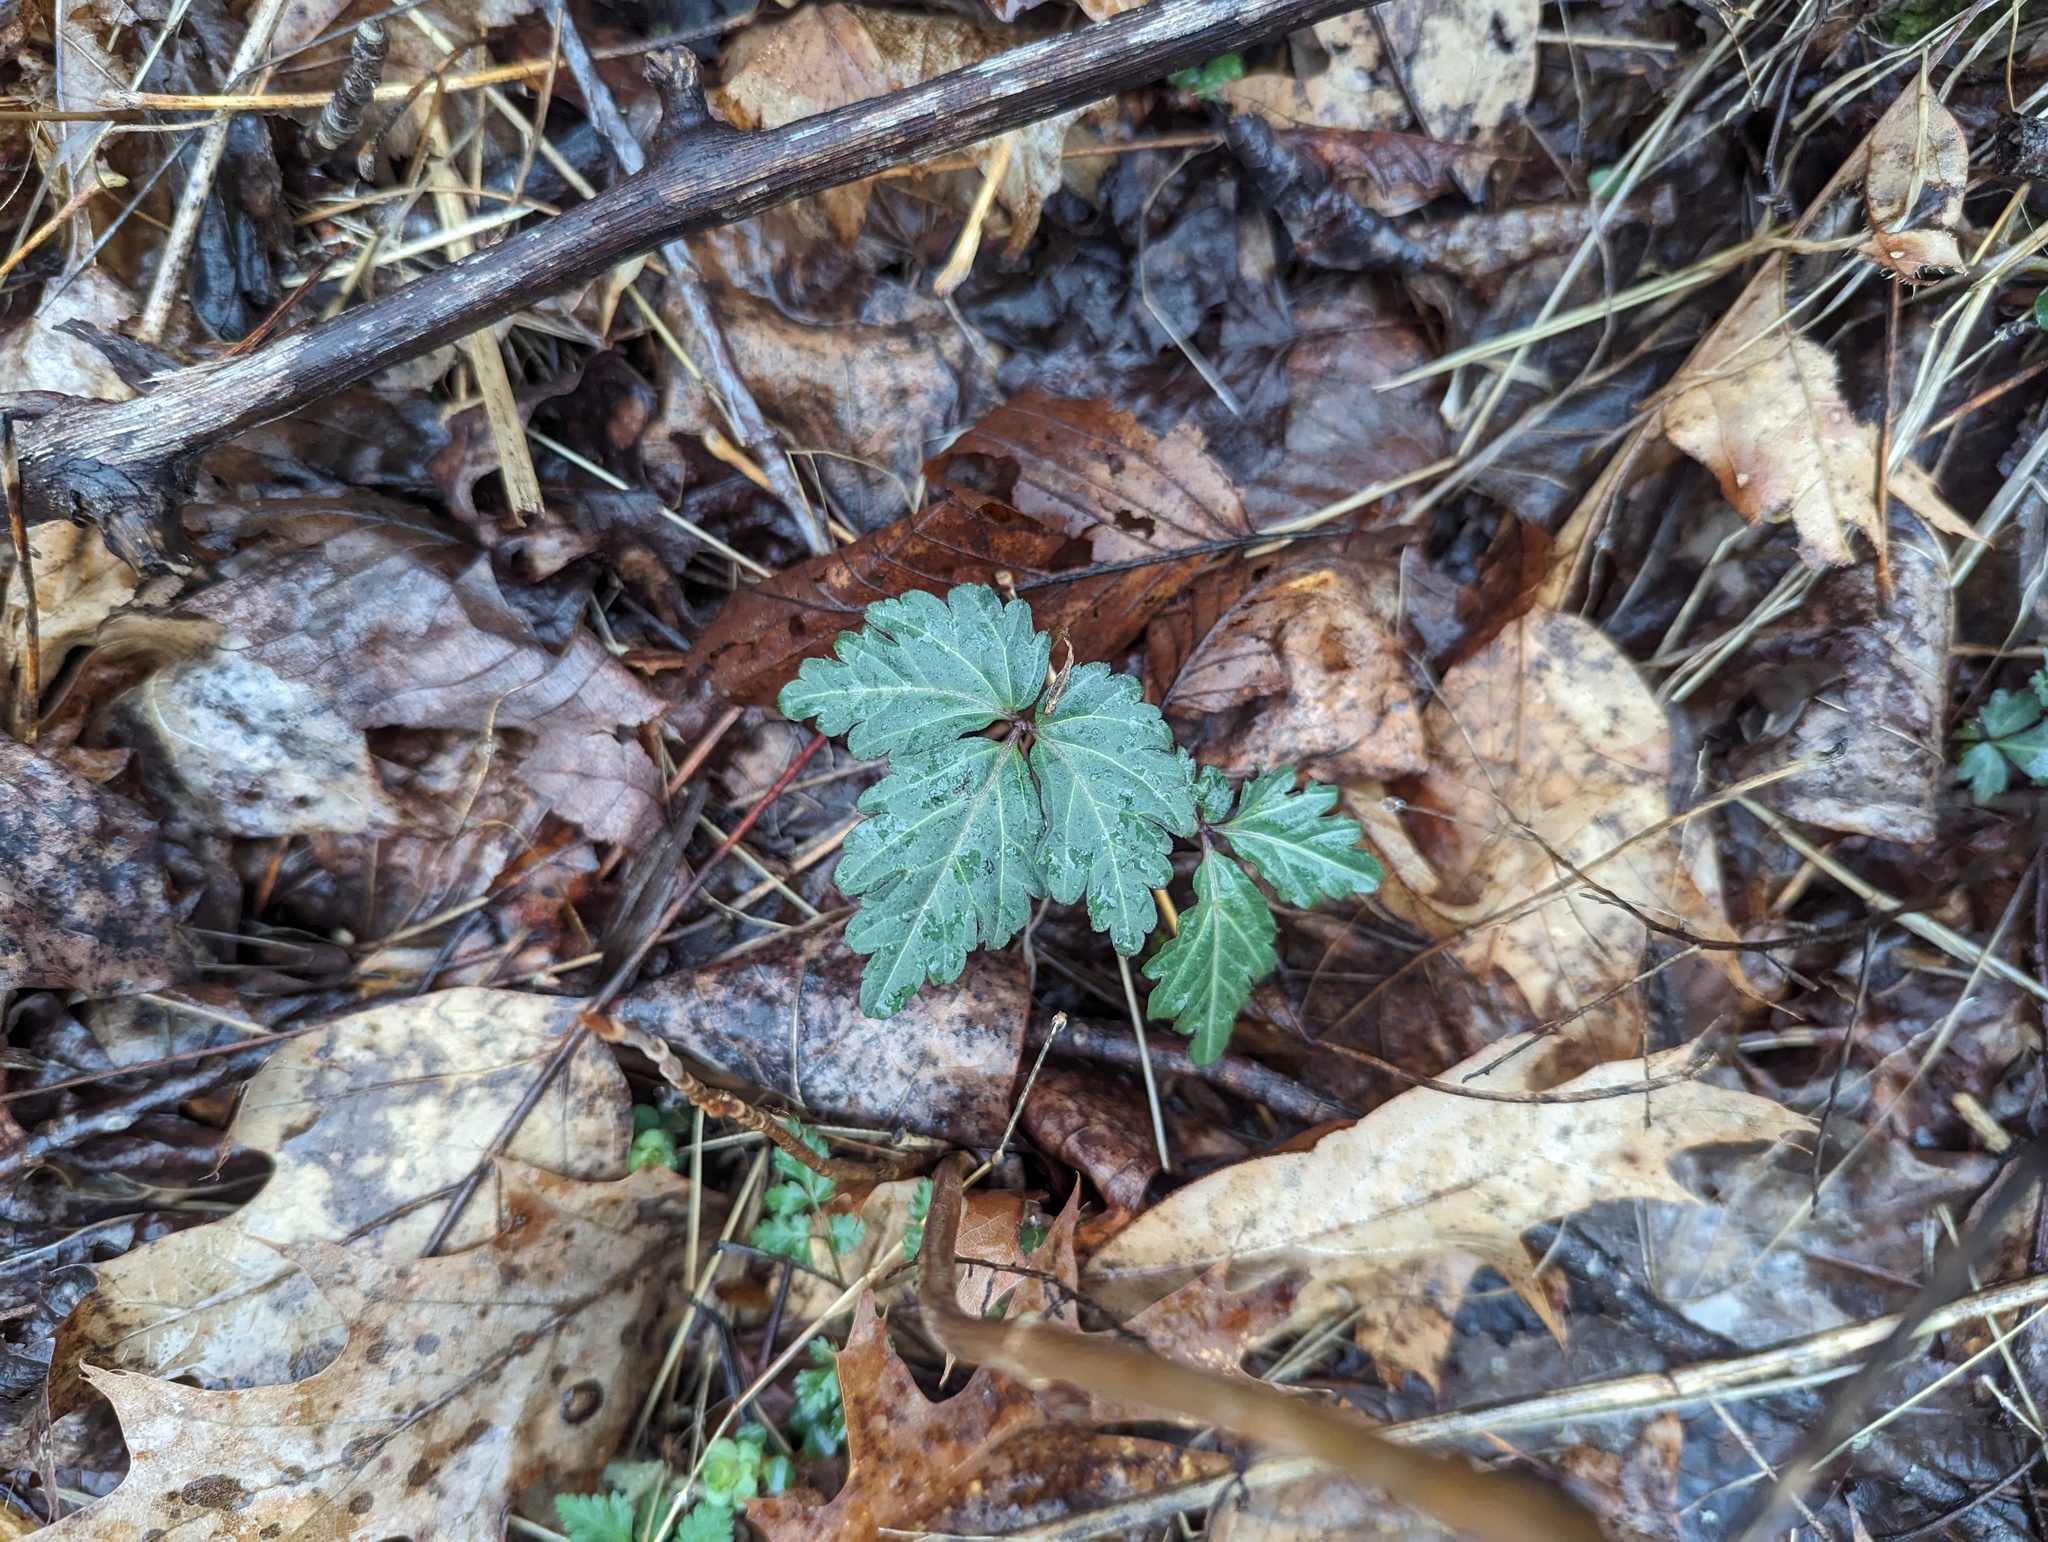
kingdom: Plantae
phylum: Tracheophyta
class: Magnoliopsida
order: Brassicales
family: Brassicaceae
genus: Cardamine
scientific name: Cardamine diphylla
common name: Broad-leaved toothwort
